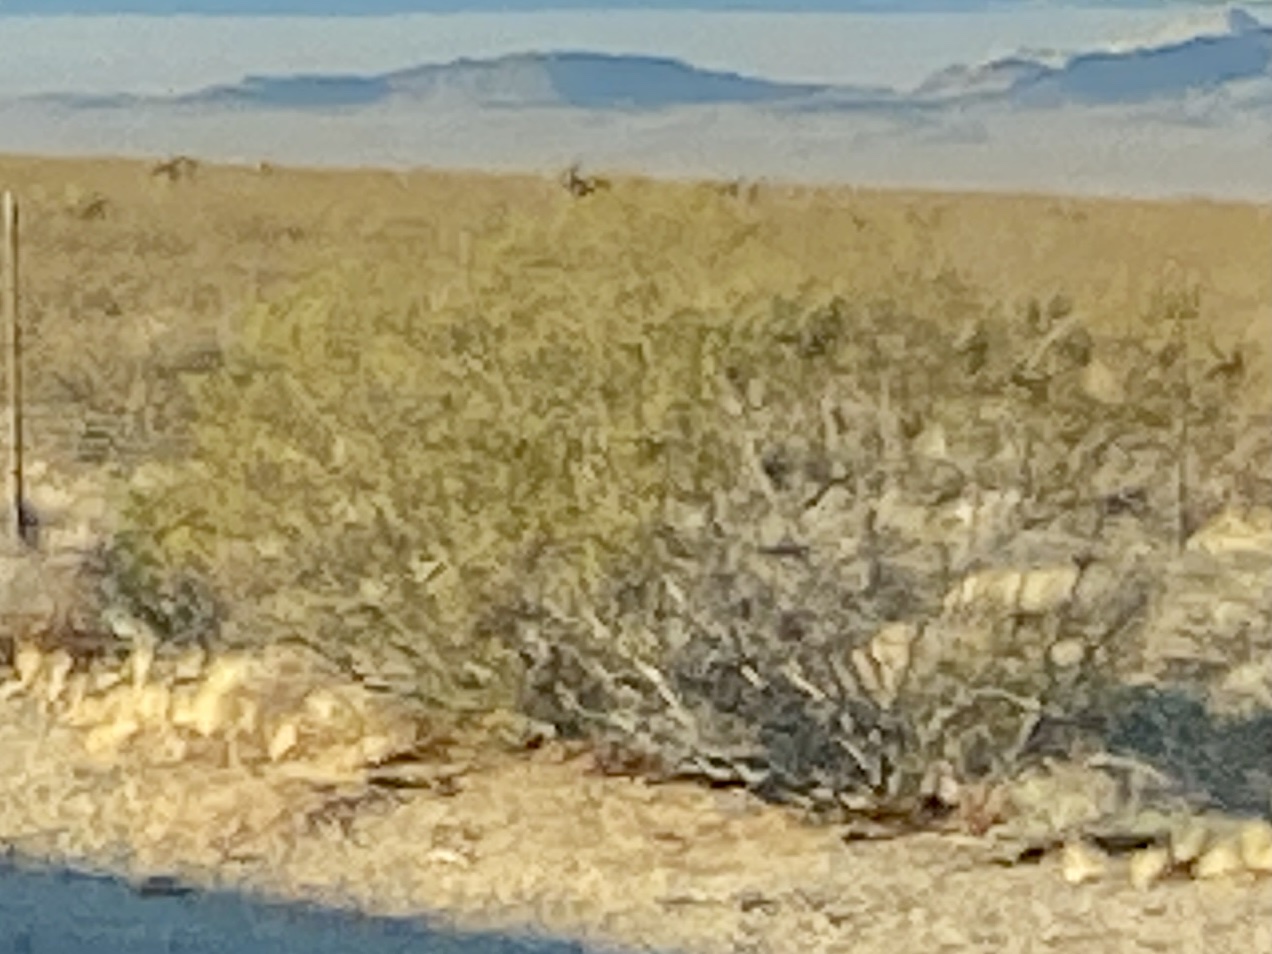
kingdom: Plantae
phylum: Tracheophyta
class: Magnoliopsida
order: Zygophyllales
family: Zygophyllaceae
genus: Larrea
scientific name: Larrea tridentata
